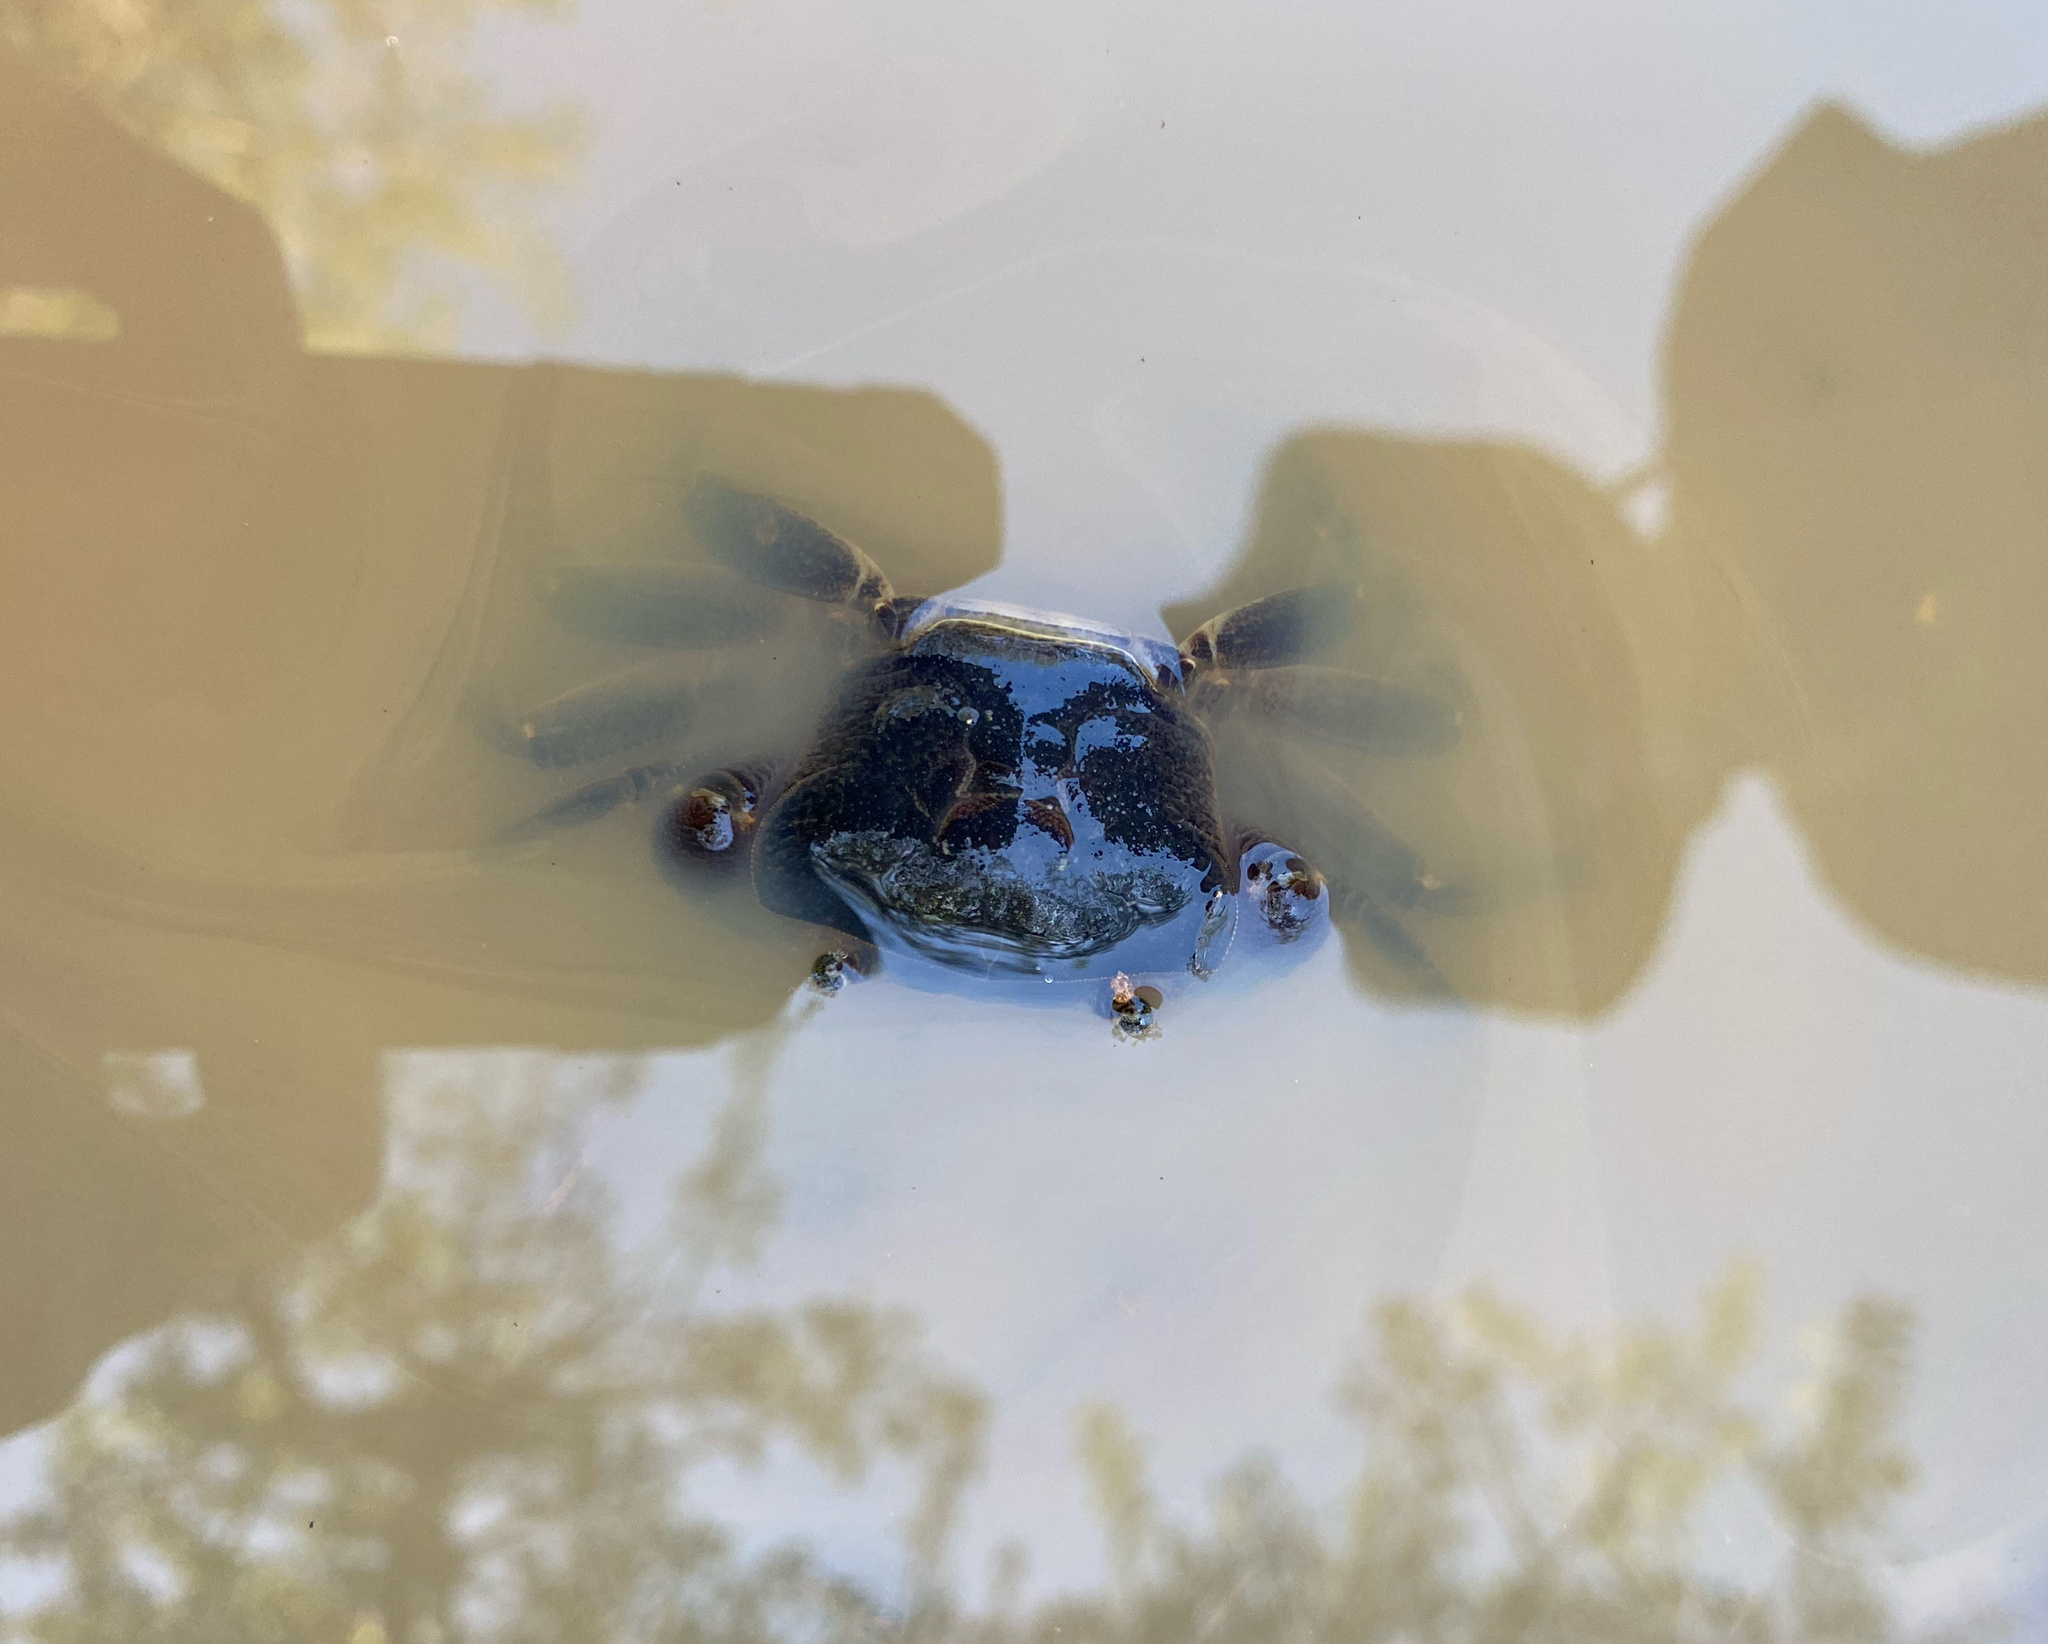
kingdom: Animalia
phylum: Arthropoda
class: Malacostraca
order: Decapoda
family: Potamonautidae
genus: Potamonautes
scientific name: Potamonautes sidneyi
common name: Natal river crab
